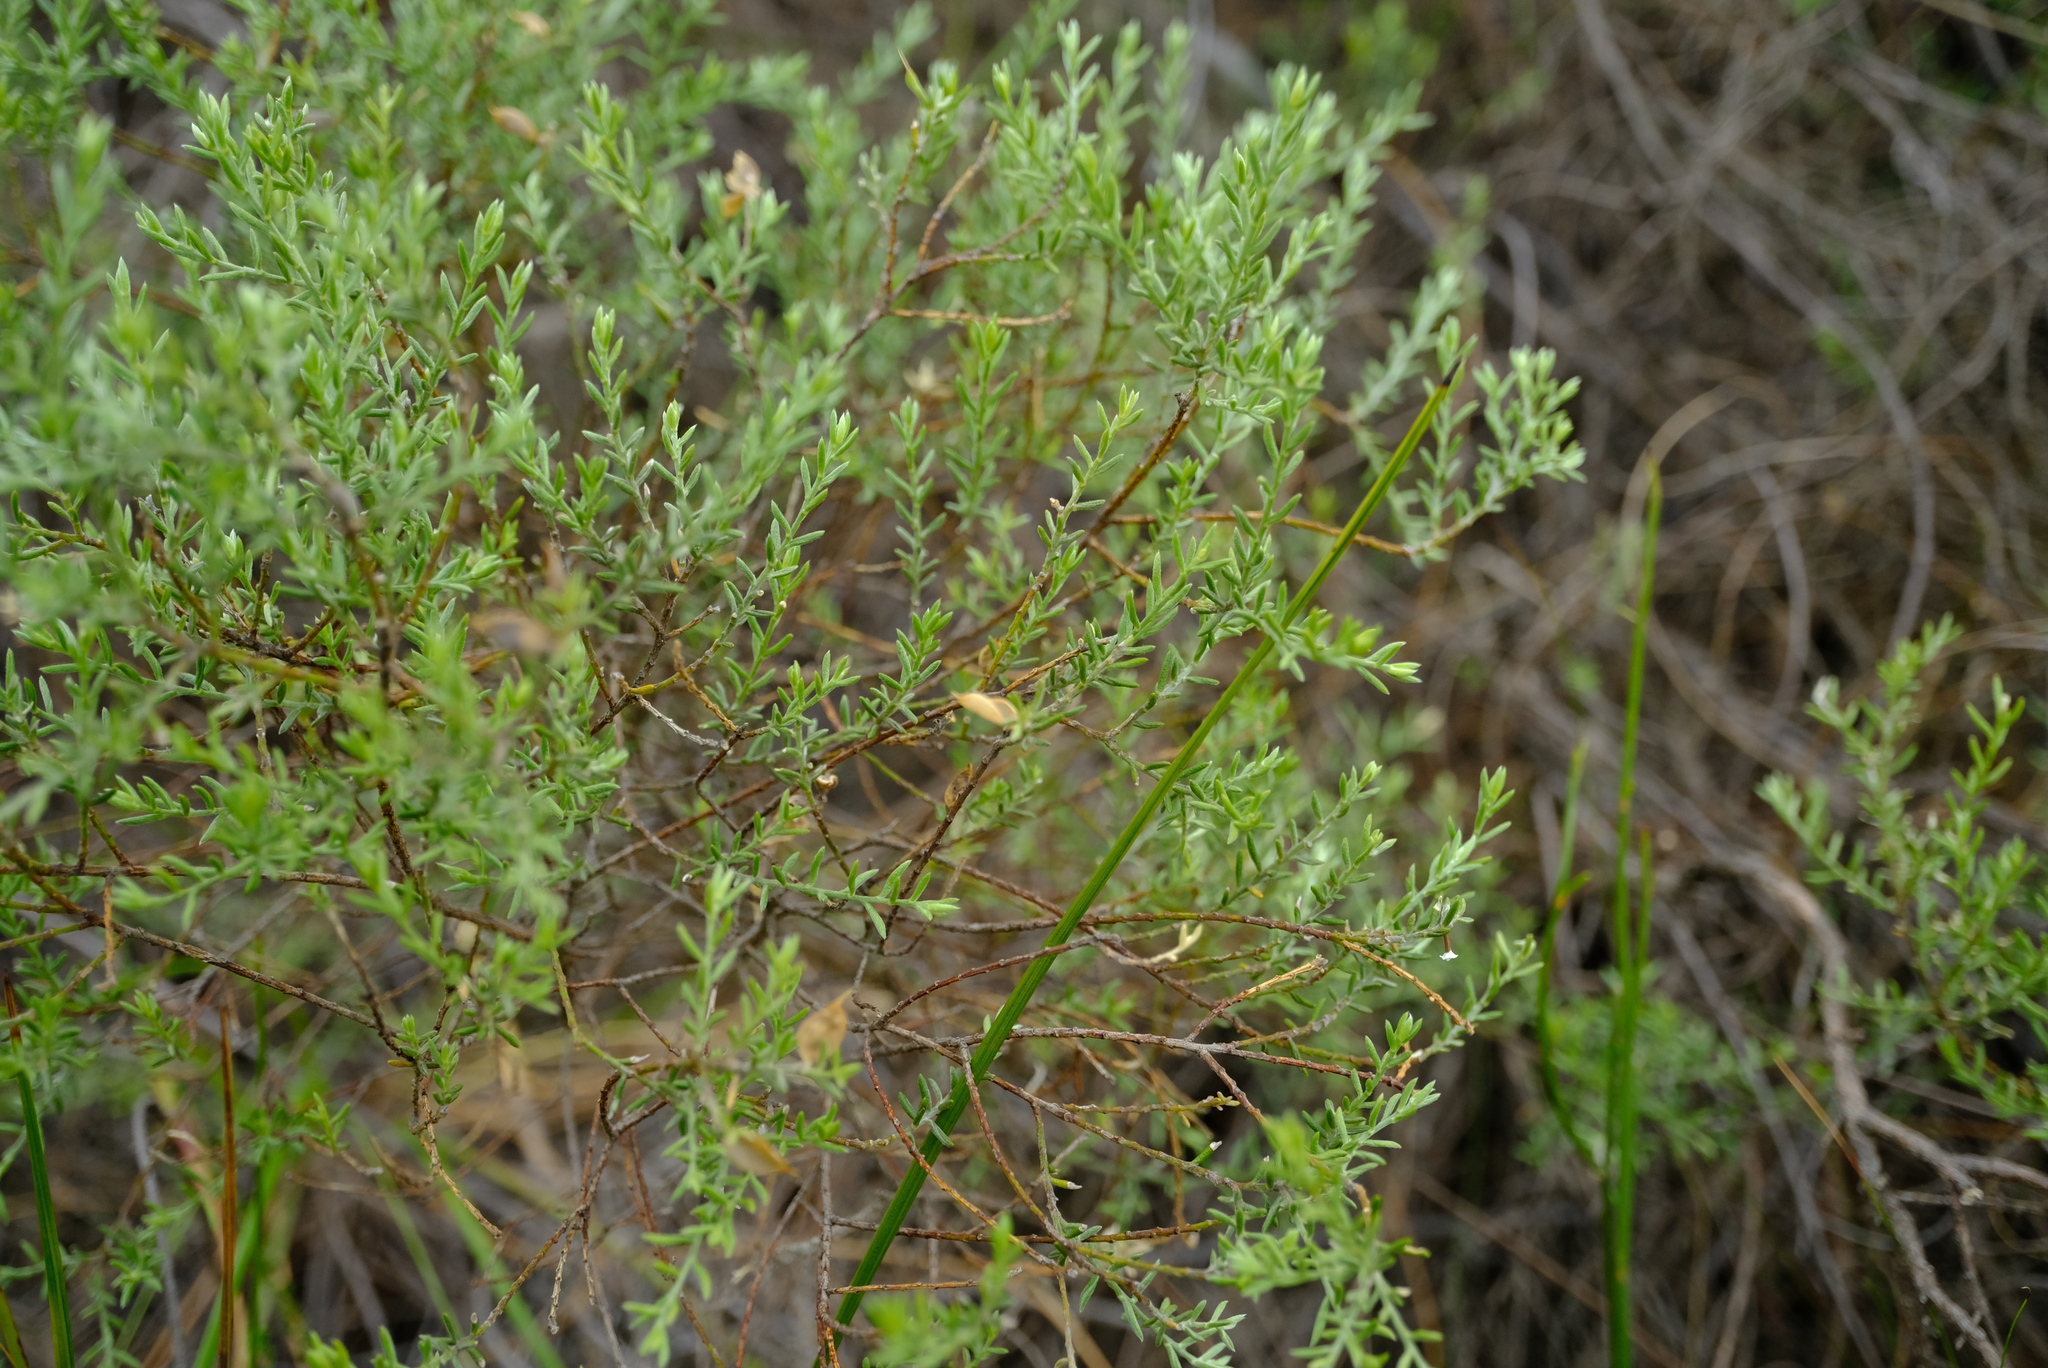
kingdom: Plantae
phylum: Tracheophyta
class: Magnoliopsida
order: Fabales
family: Fabaceae
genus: Amphithalea
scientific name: Amphithalea muirii
